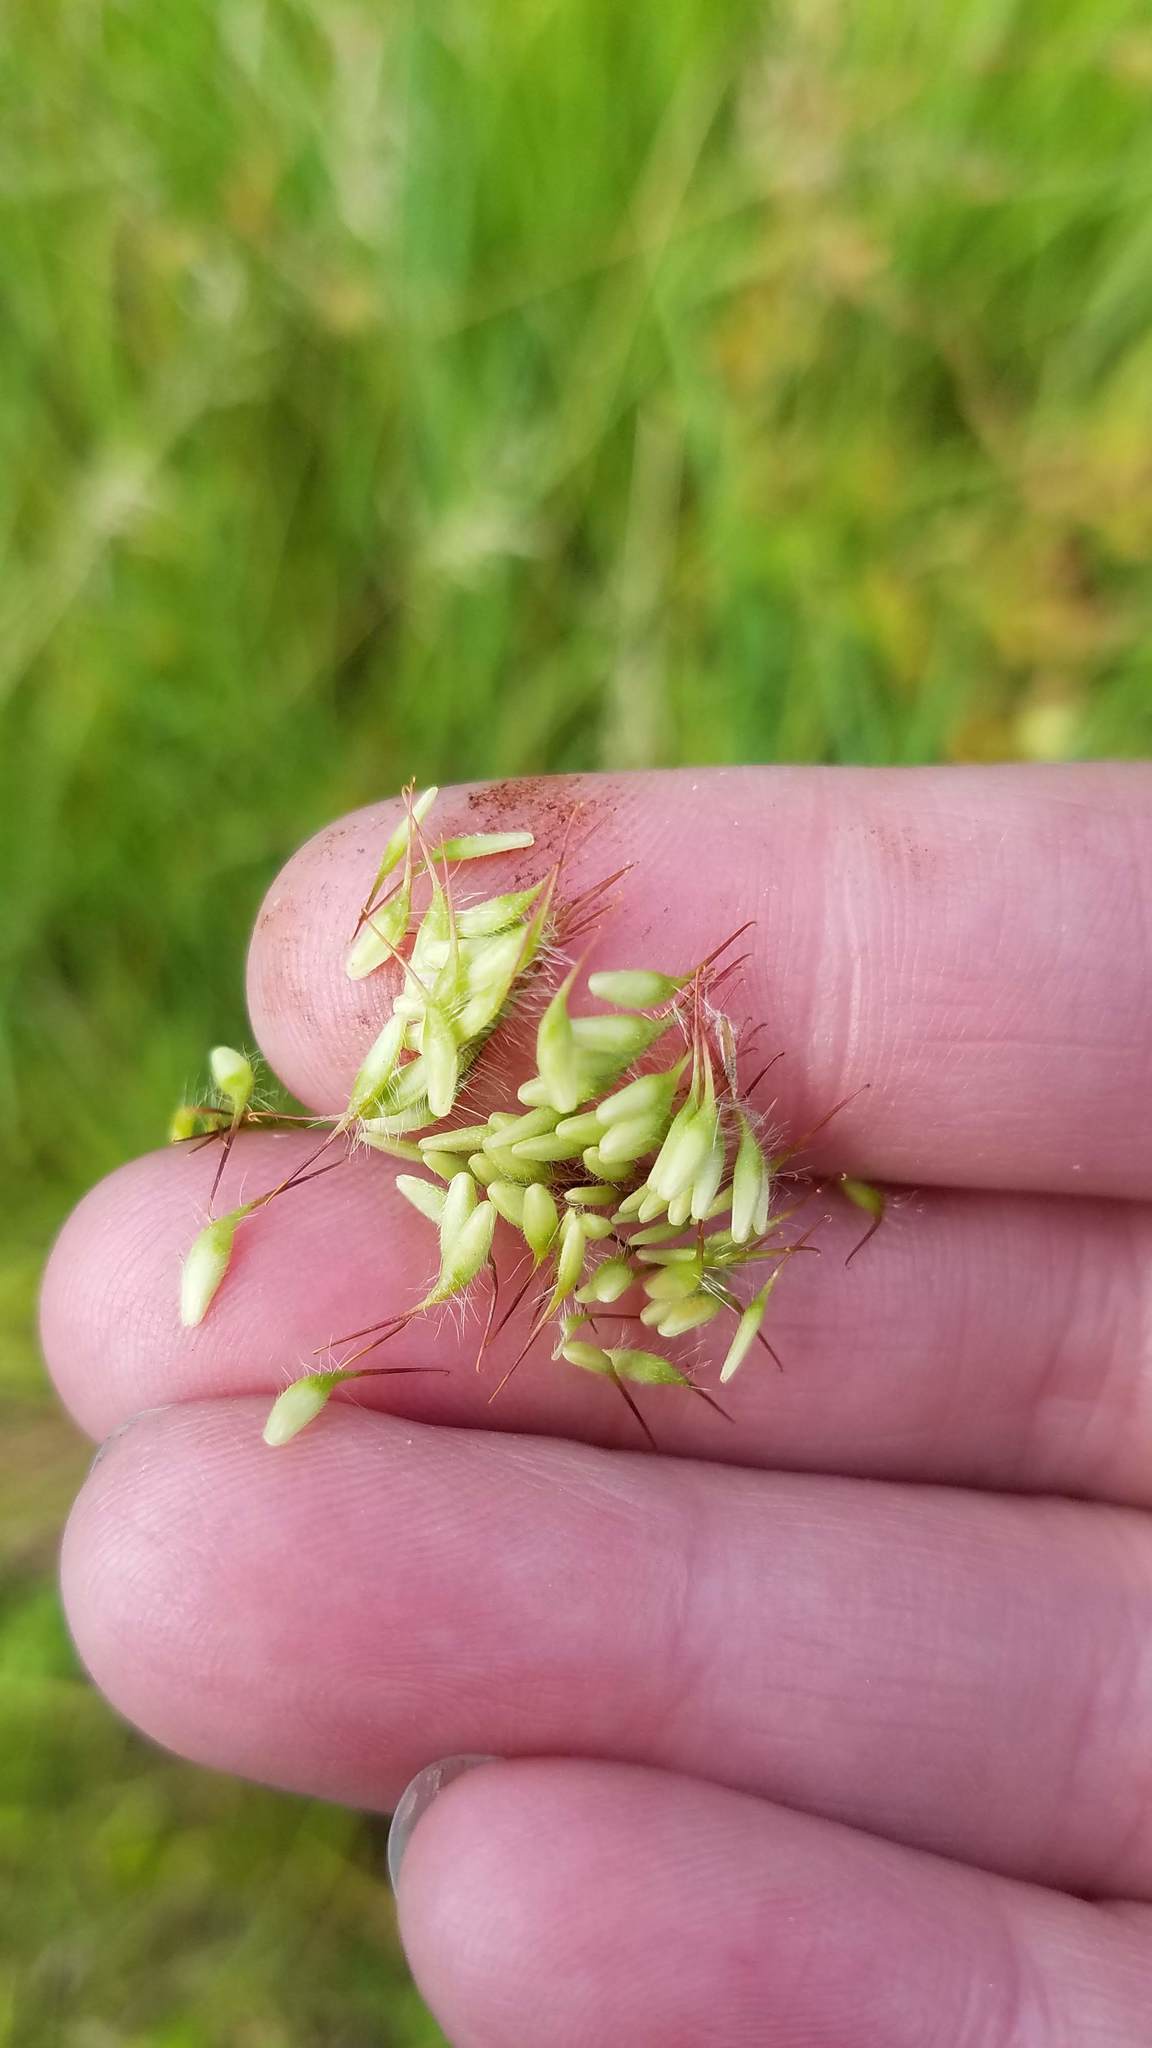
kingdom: Plantae
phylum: Tracheophyta
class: Magnoliopsida
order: Rosales
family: Rosaceae
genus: Geum
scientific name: Geum aleppicum
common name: Yellow avens
